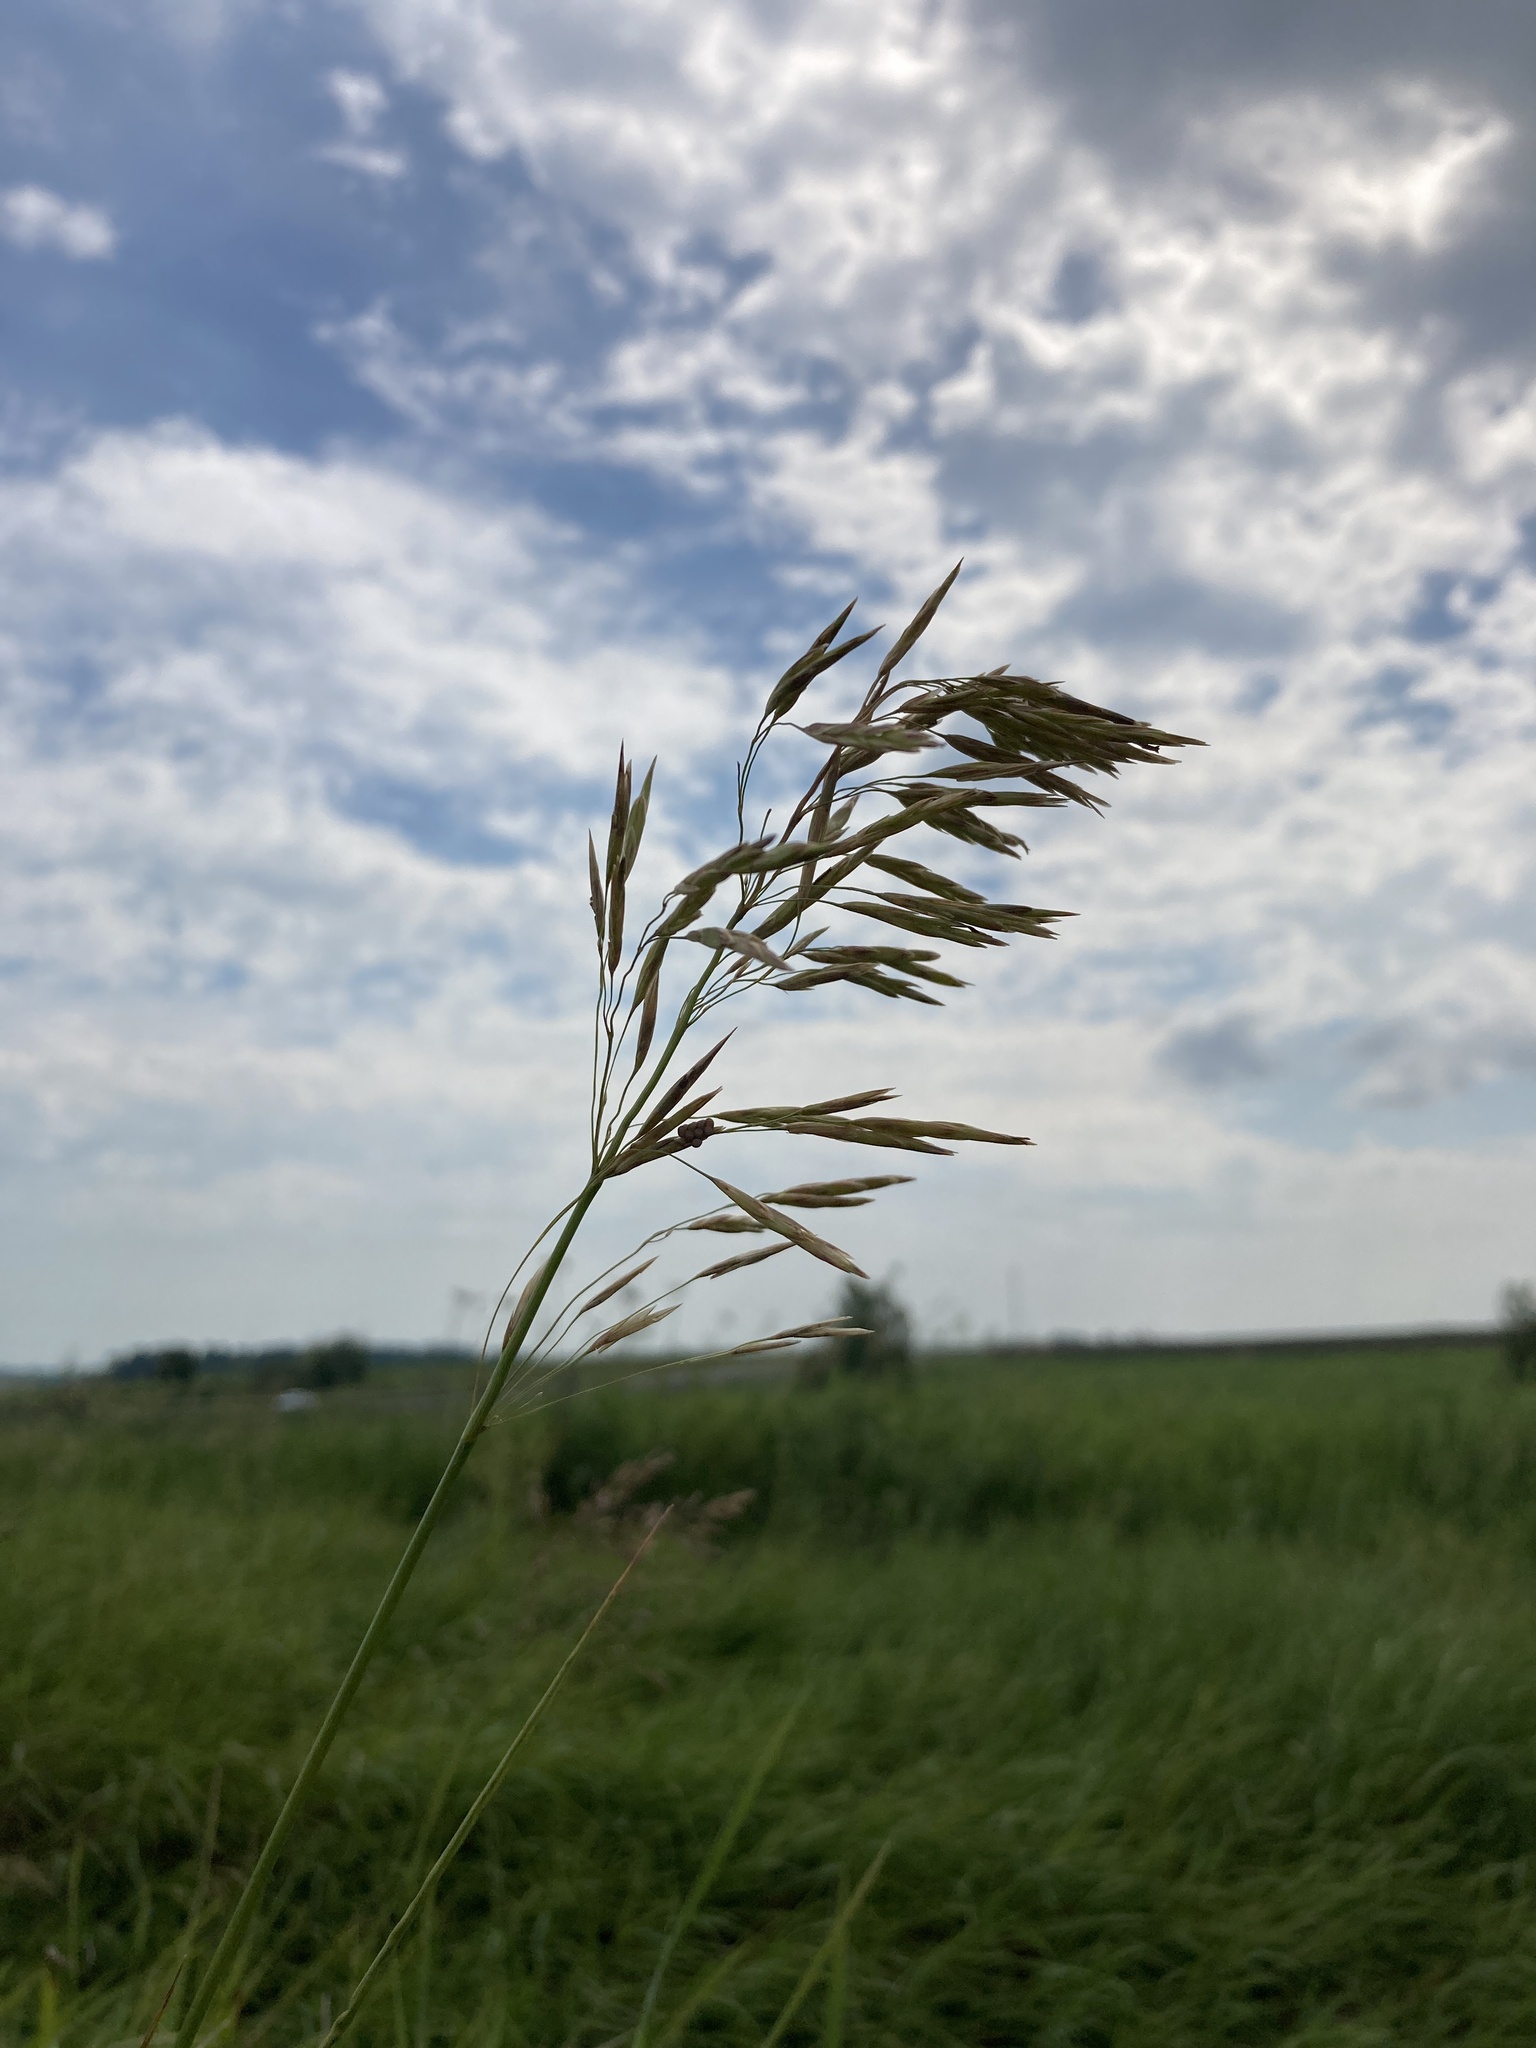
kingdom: Plantae
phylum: Tracheophyta
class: Liliopsida
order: Poales
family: Poaceae
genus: Bromus
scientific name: Bromus inermis
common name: Smooth brome
